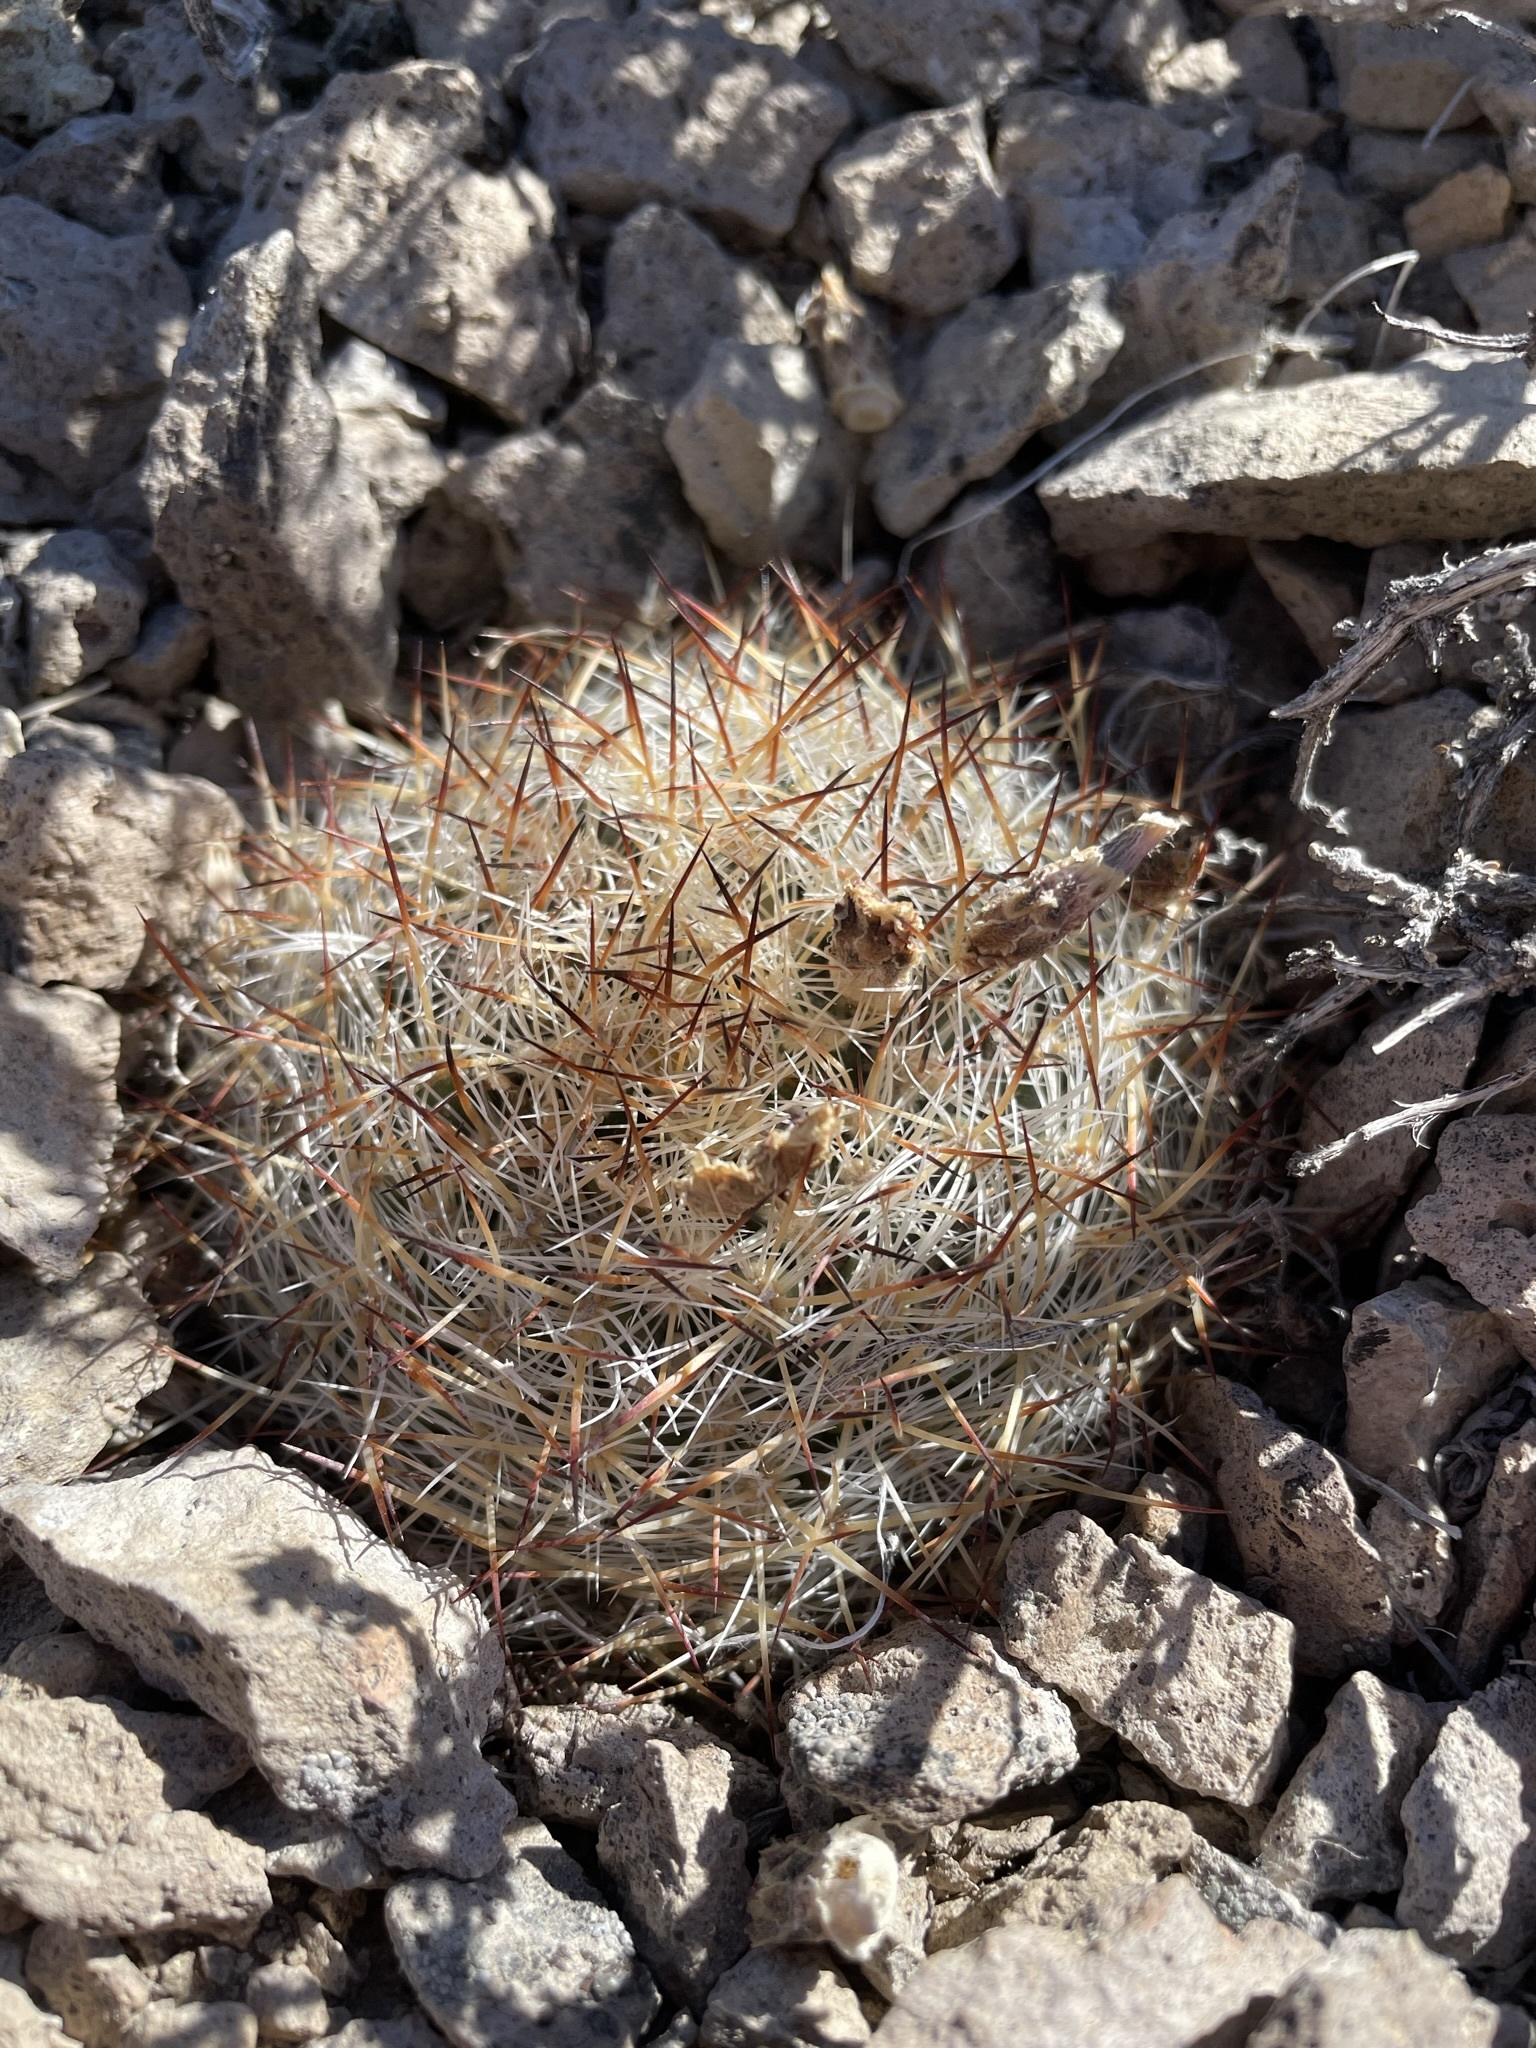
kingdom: Plantae
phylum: Tracheophyta
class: Magnoliopsida
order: Caryophyllales
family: Cactaceae
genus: Pediocactus
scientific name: Pediocactus simpsonii
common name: Simpson's hedgehog cactus
